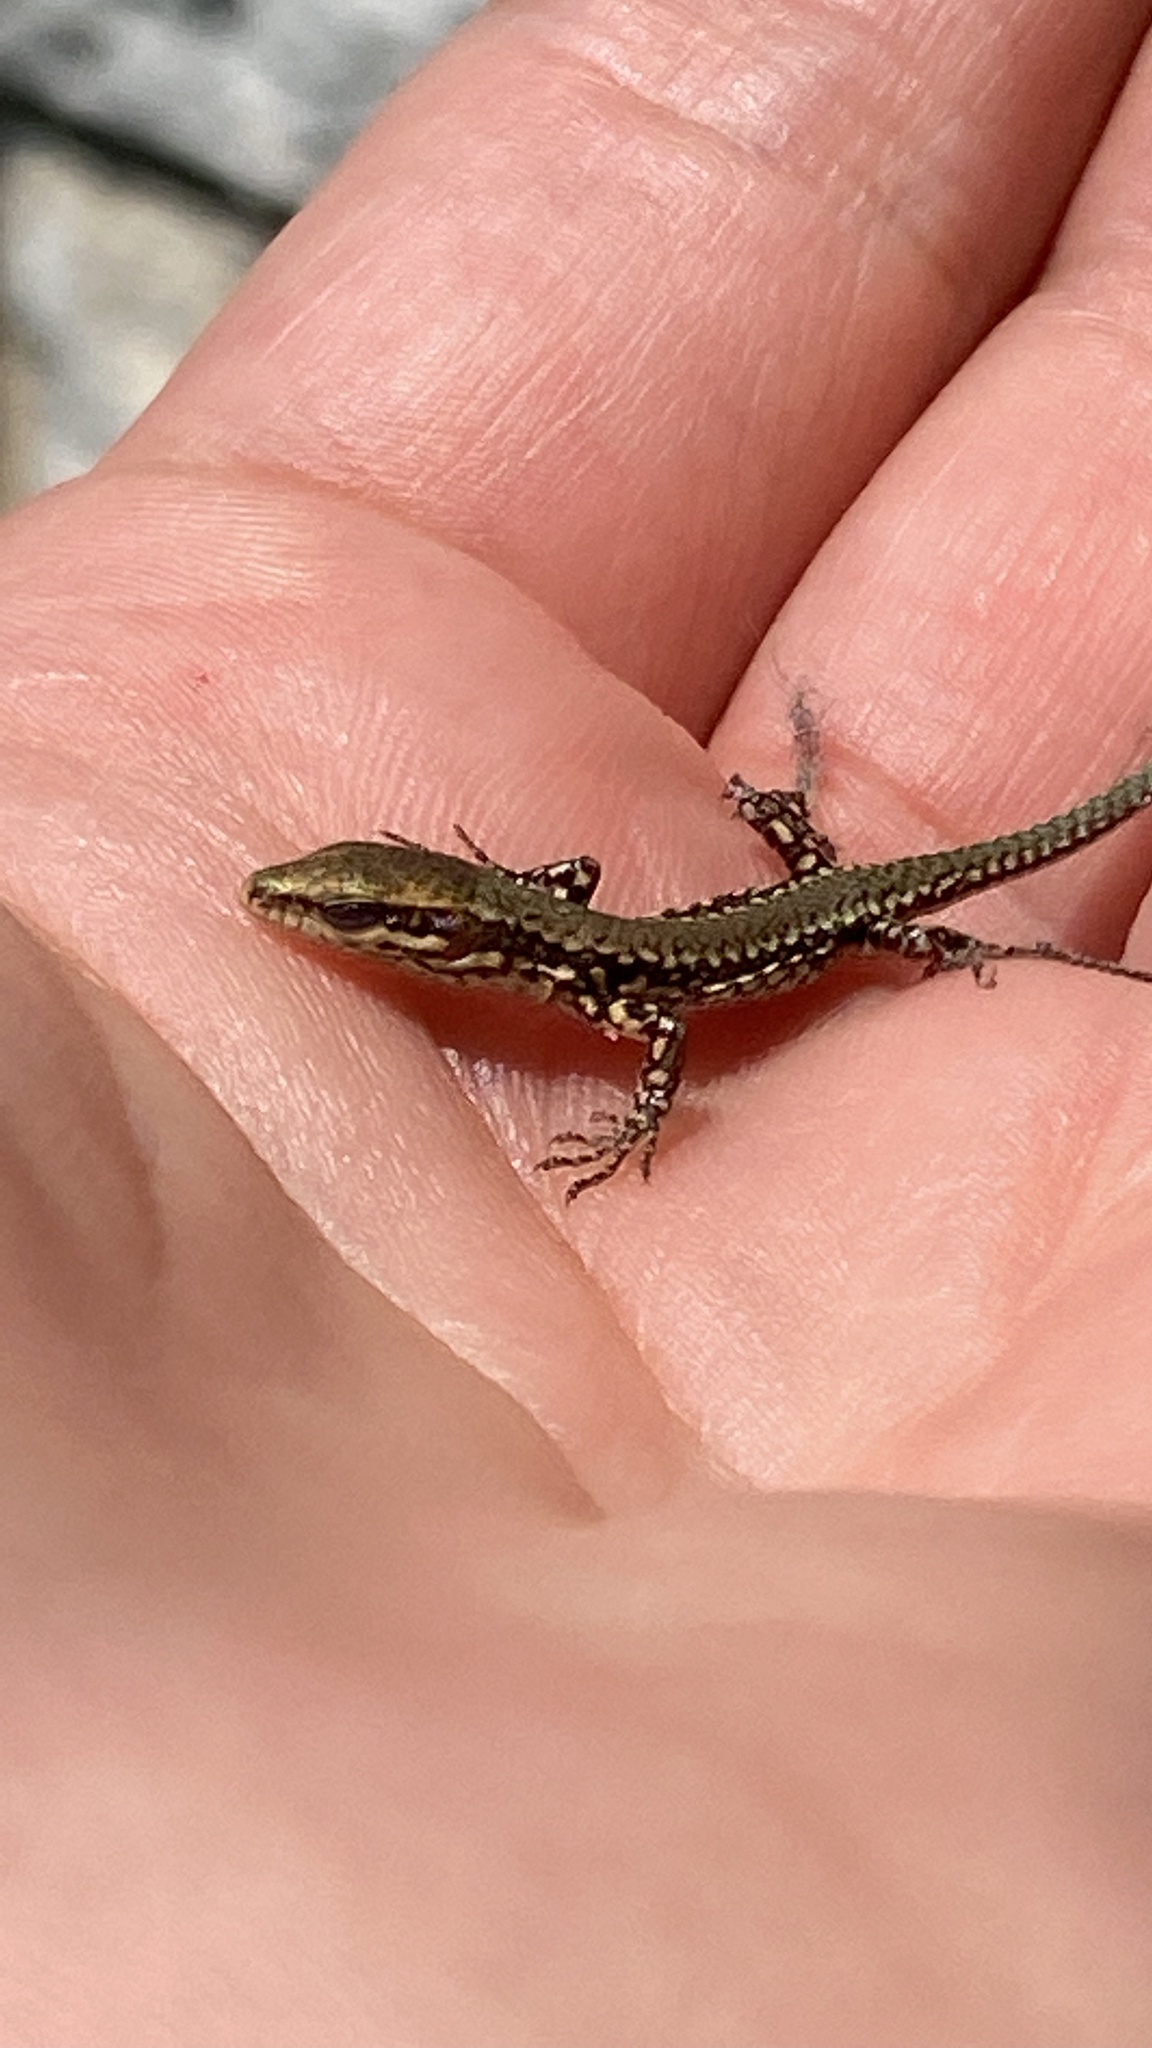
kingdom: Animalia
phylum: Chordata
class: Squamata
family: Lacertidae
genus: Podarcis
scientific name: Podarcis muralis
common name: Common wall lizard
